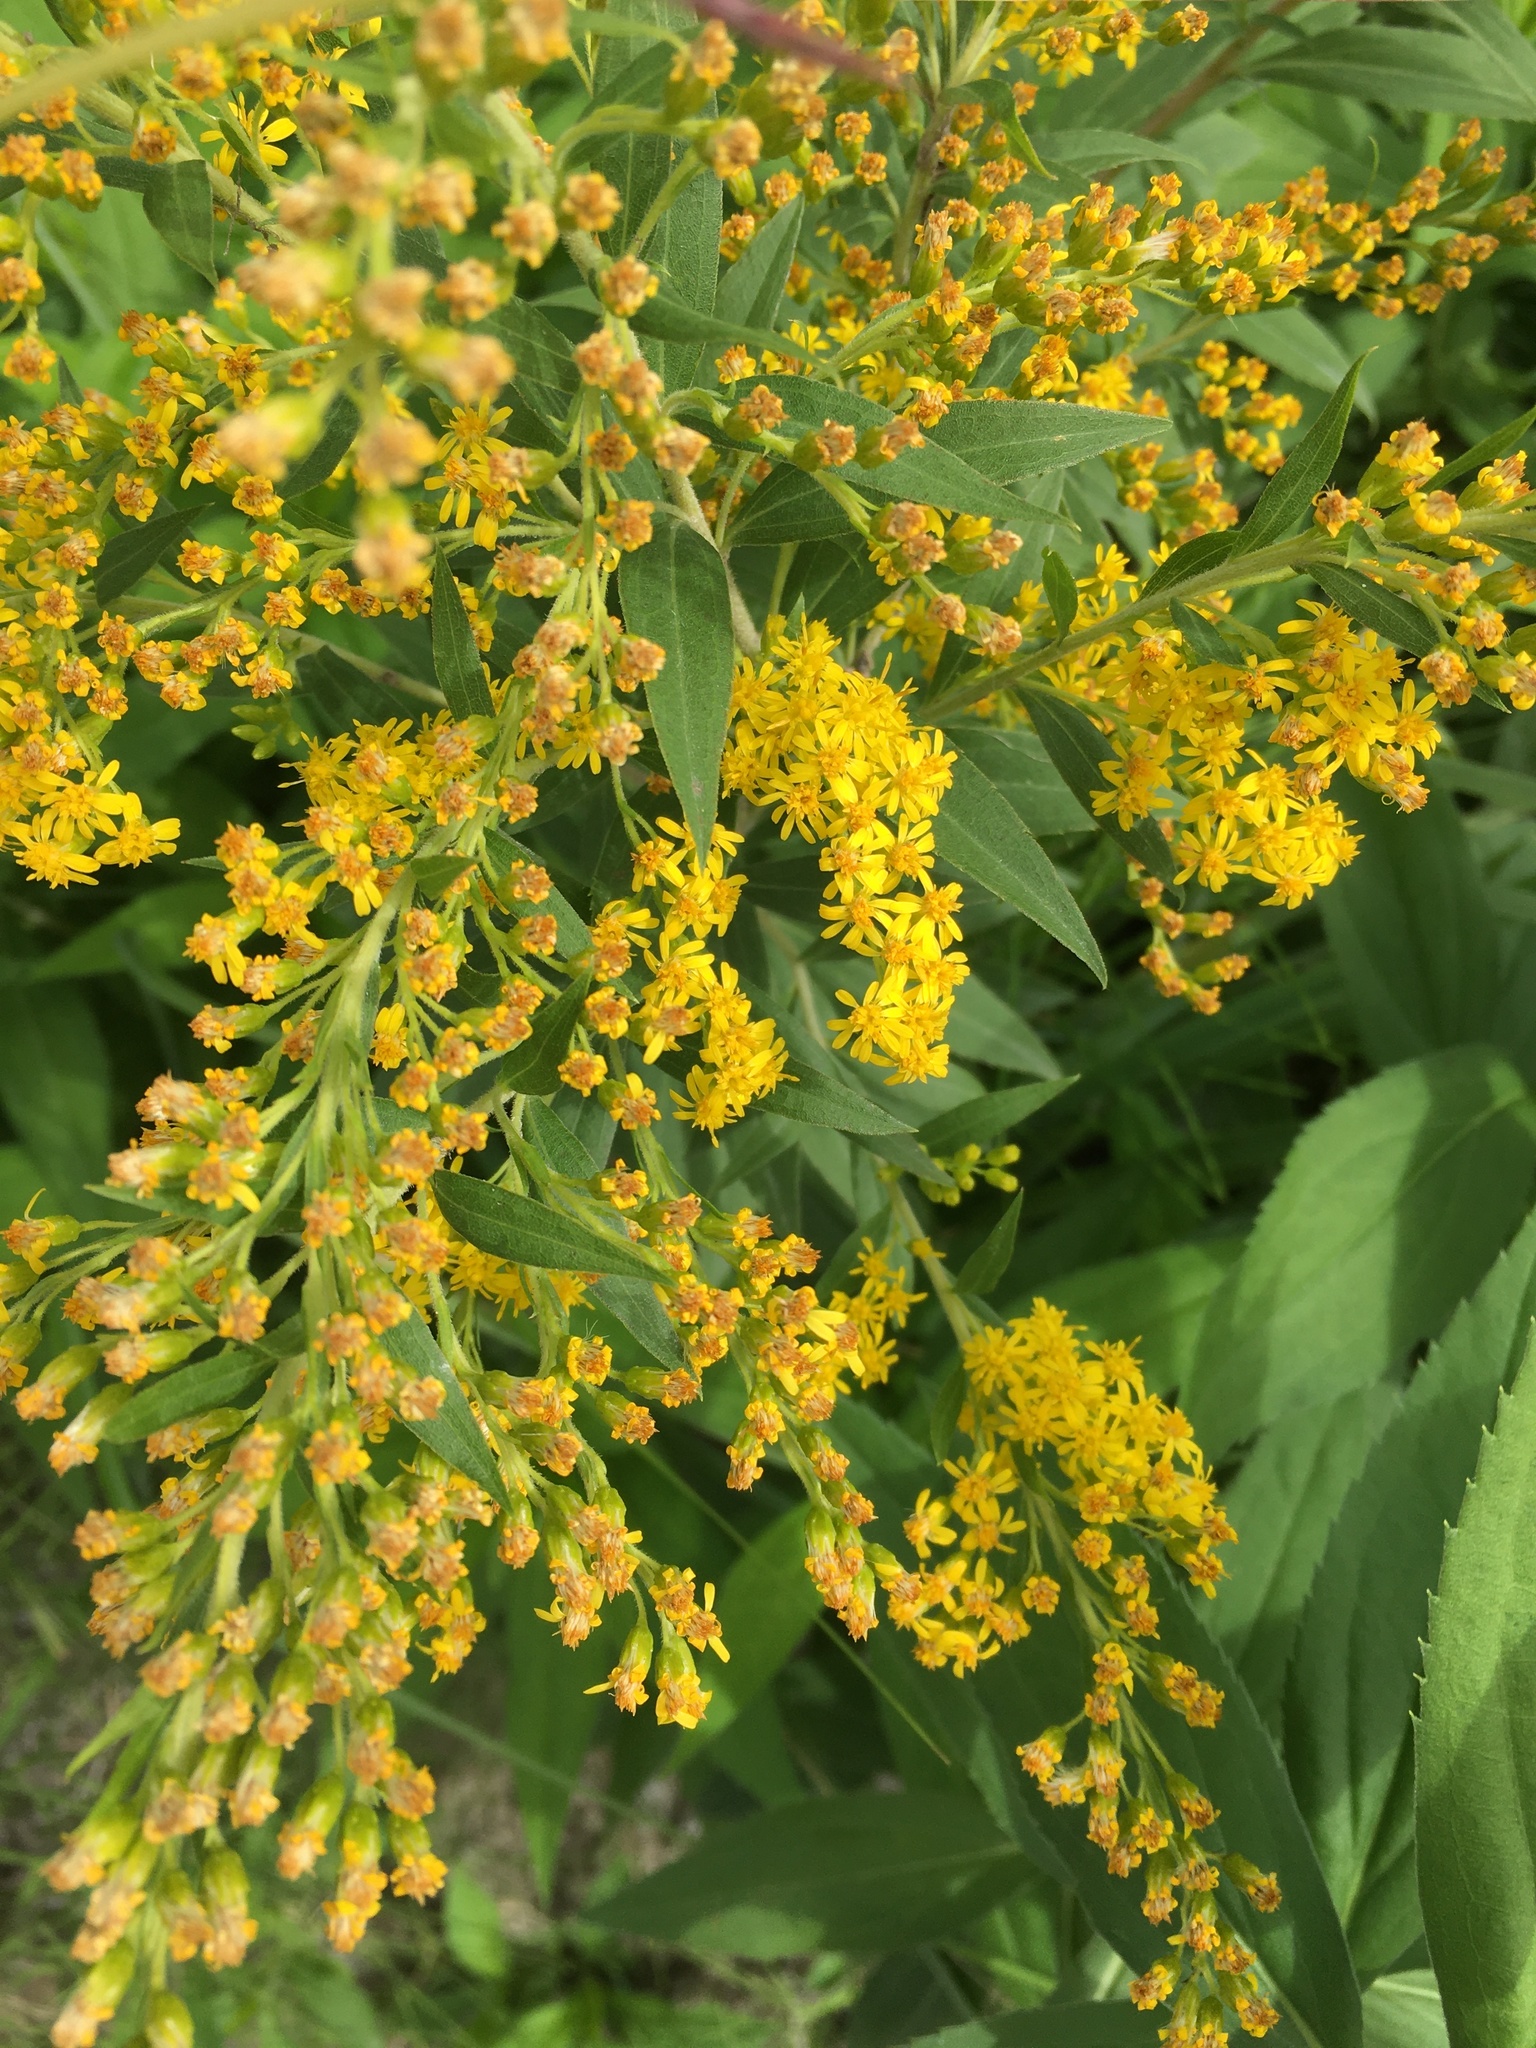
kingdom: Plantae
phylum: Tracheophyta
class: Magnoliopsida
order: Asterales
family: Asteraceae
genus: Solidago
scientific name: Solidago canadensis
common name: Canada goldenrod
